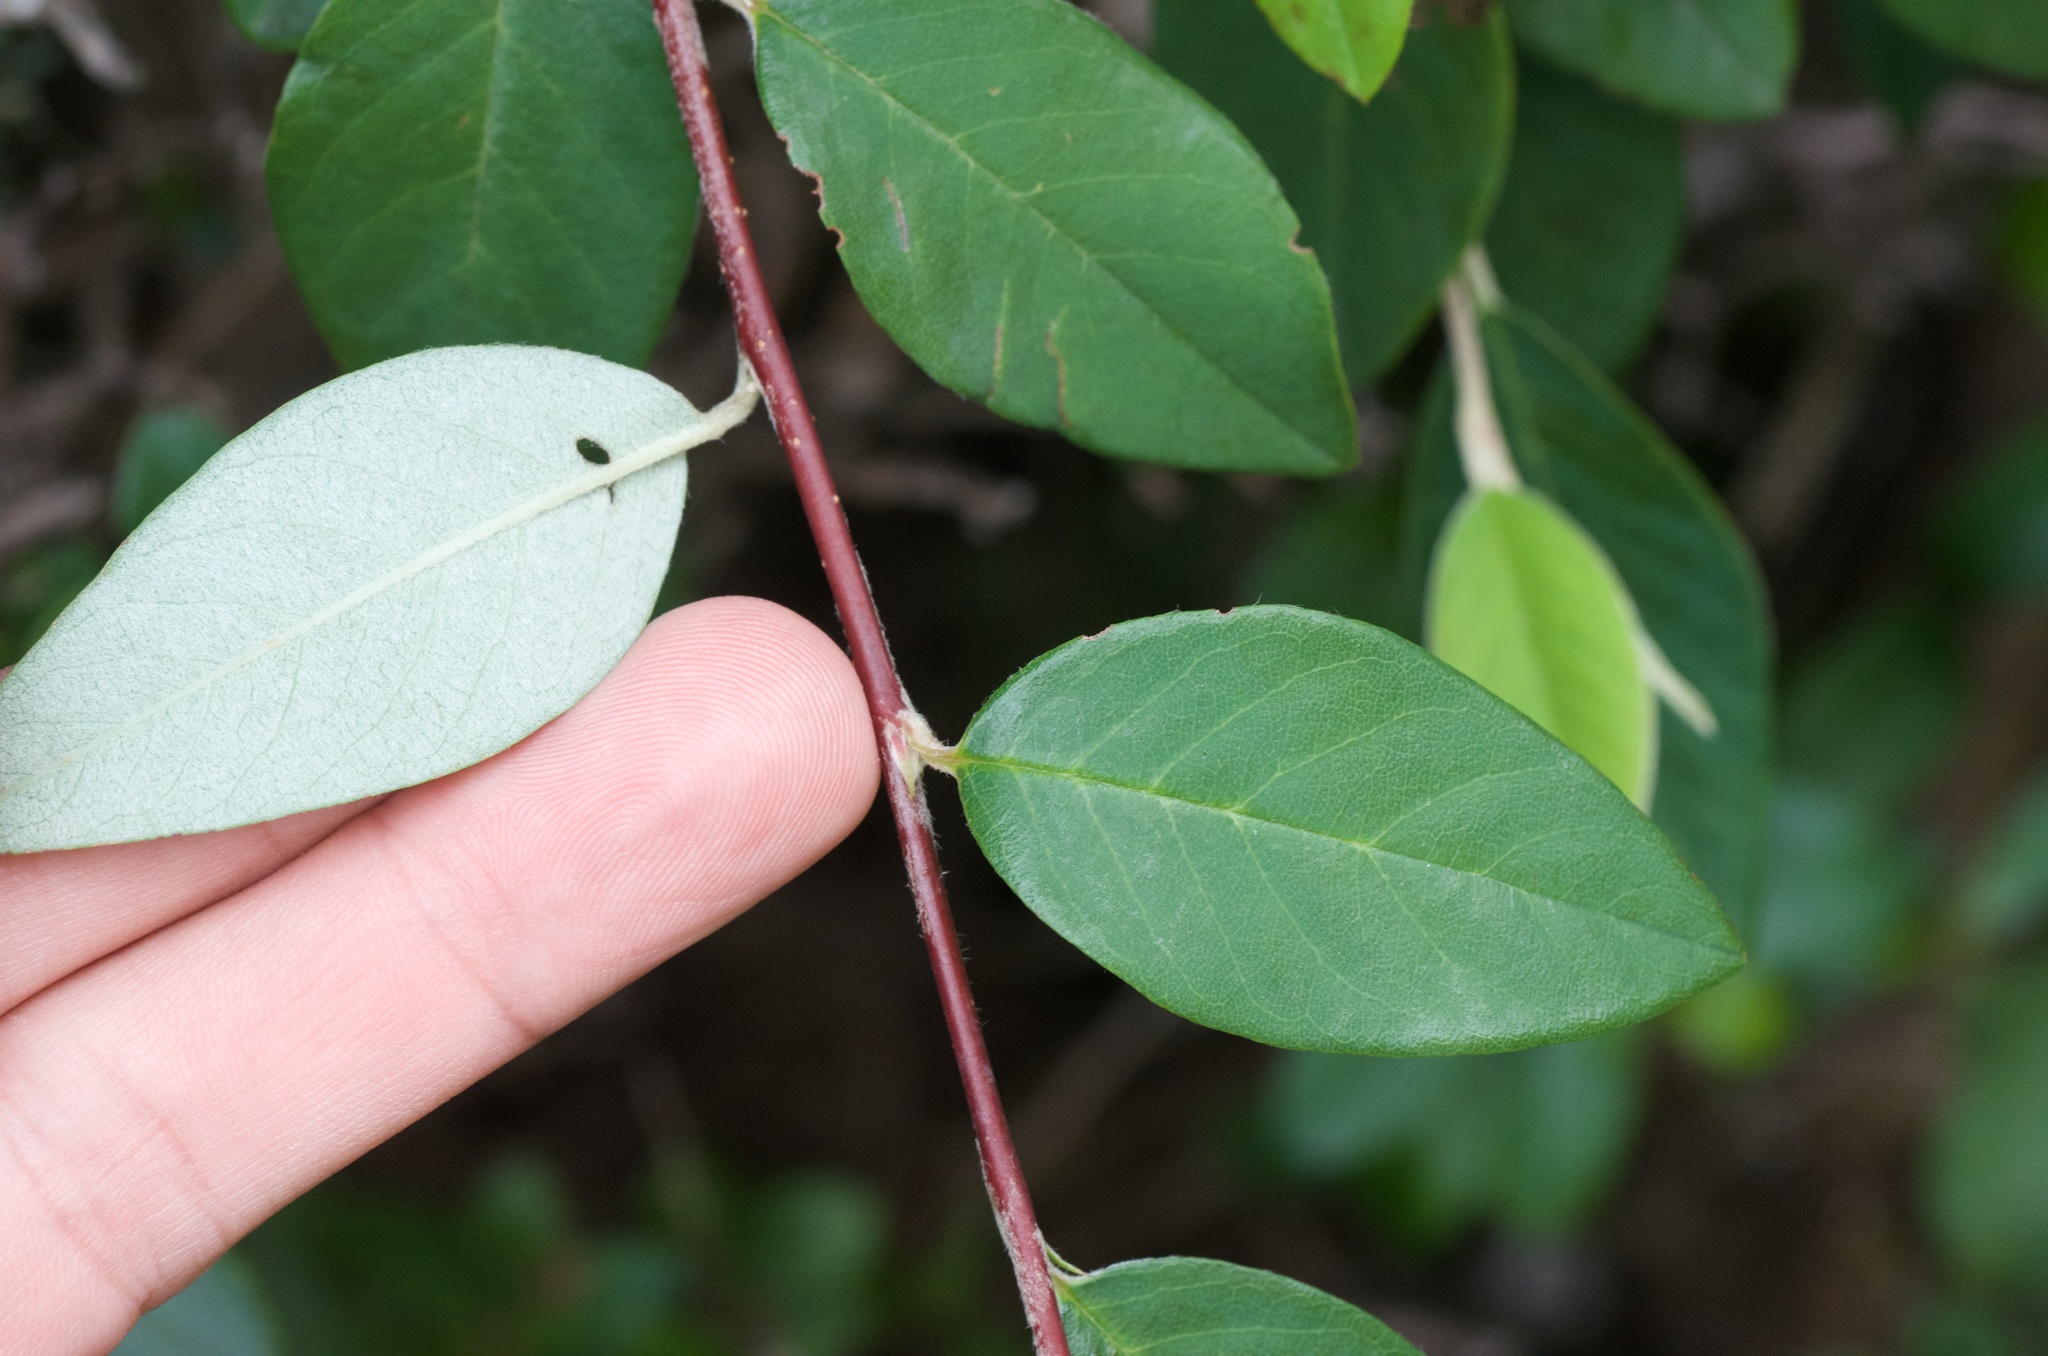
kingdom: Plantae
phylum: Tracheophyta
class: Magnoliopsida
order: Rosales
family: Rosaceae
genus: Cotoneaster
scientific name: Cotoneaster simonsii
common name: Himalayan cotoneaster
